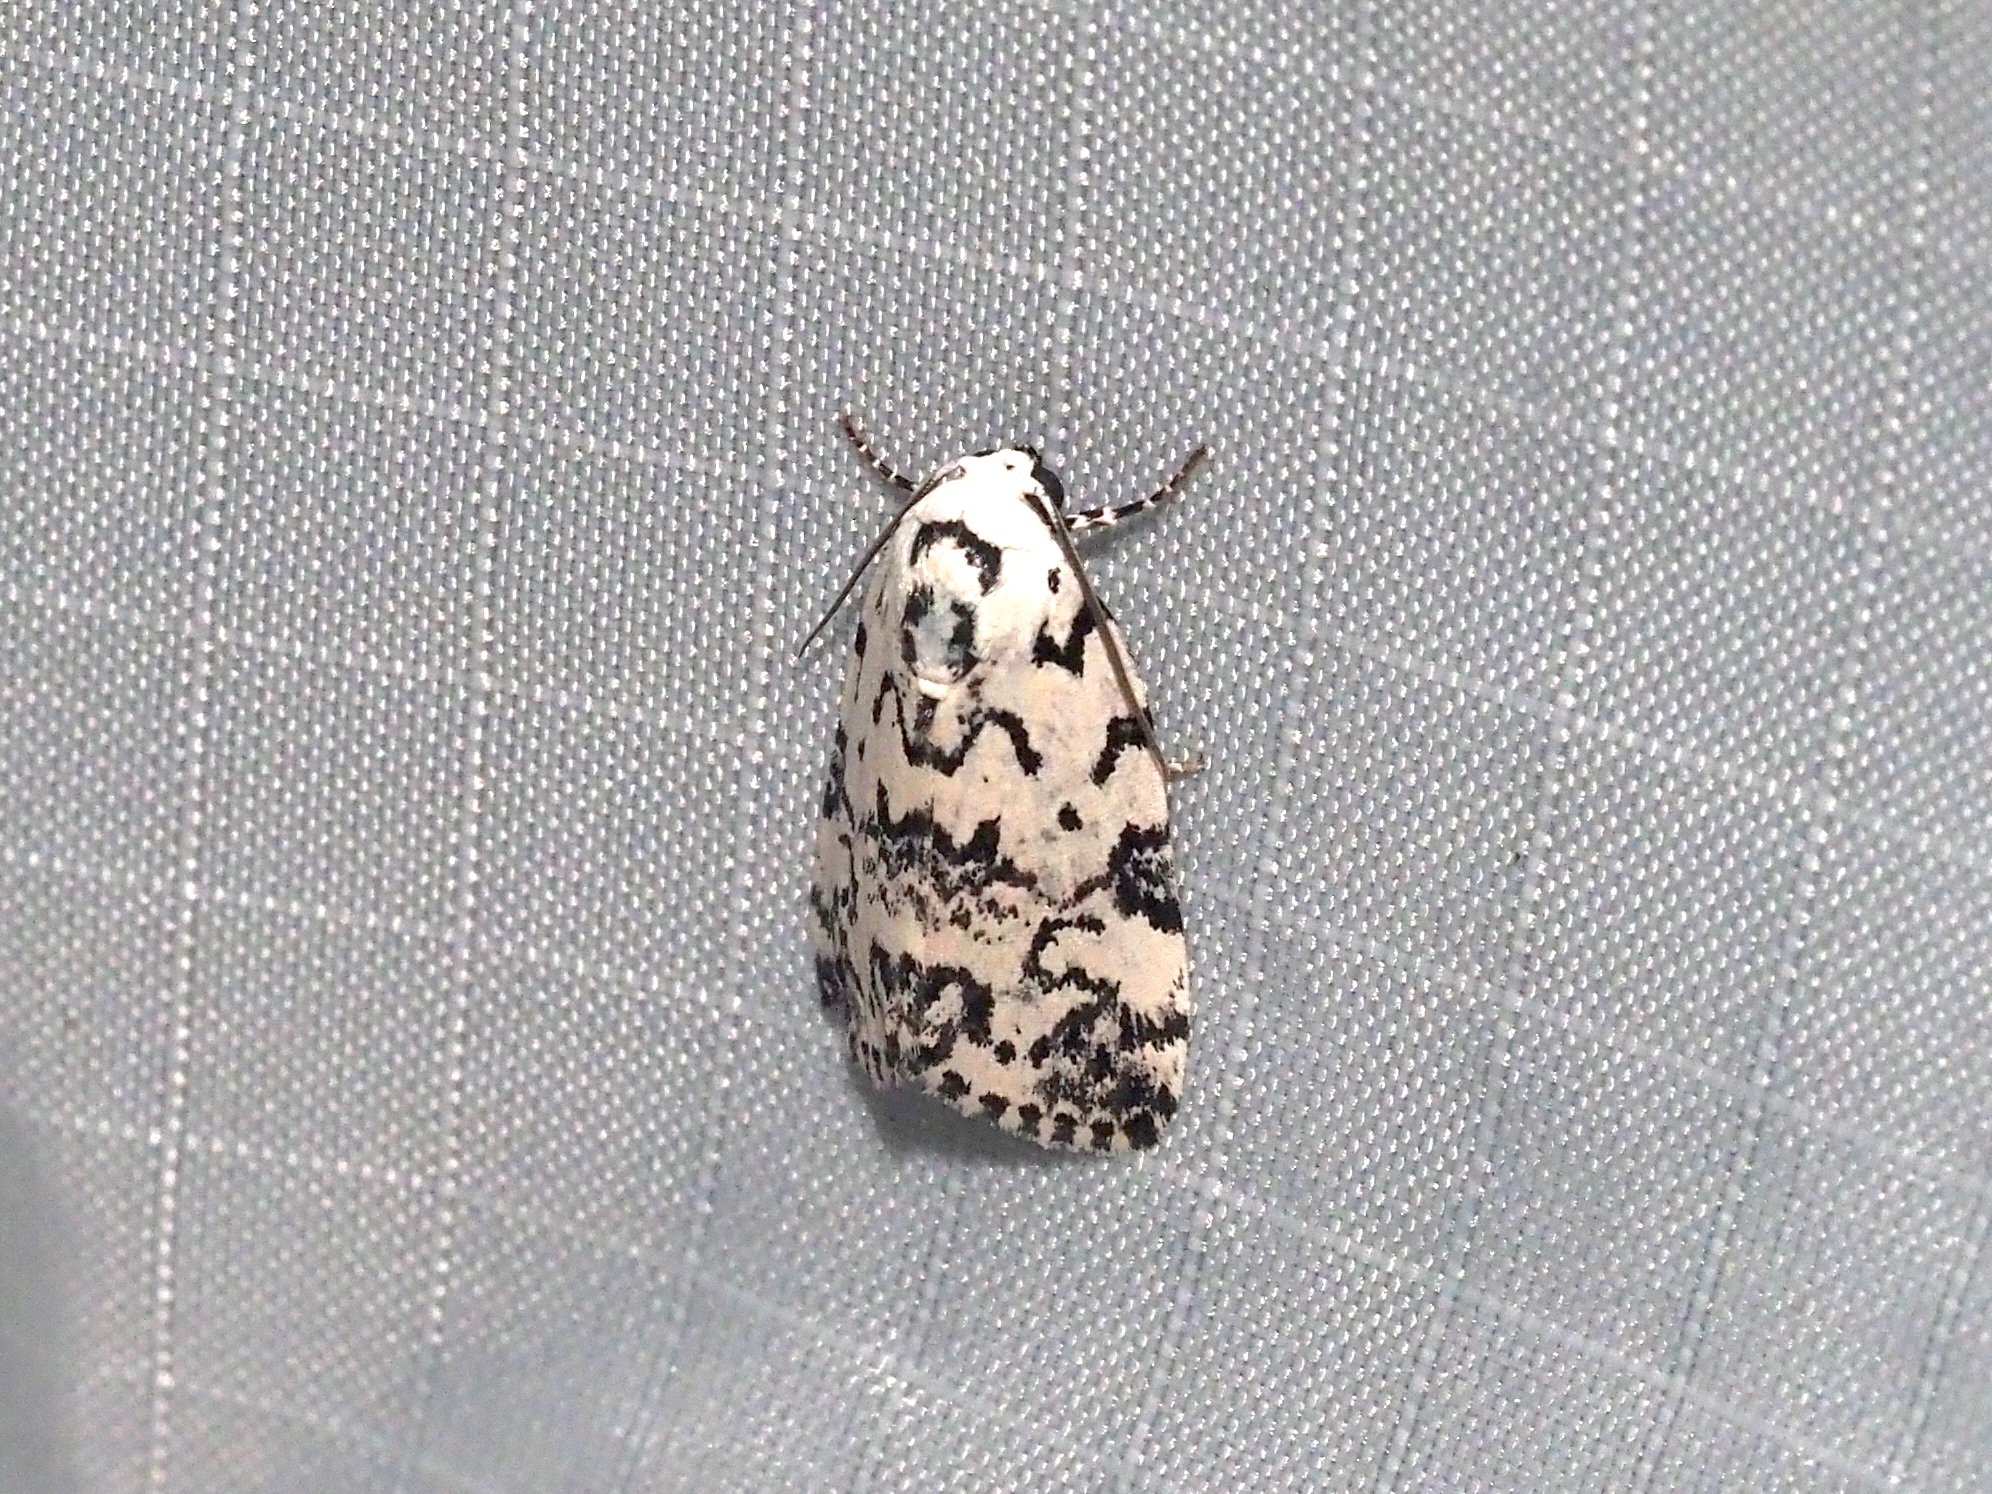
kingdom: Animalia
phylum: Arthropoda
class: Insecta
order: Lepidoptera
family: Noctuidae
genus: Polygrammate
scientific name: Polygrammate hebraeicum
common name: Hebrew moth
